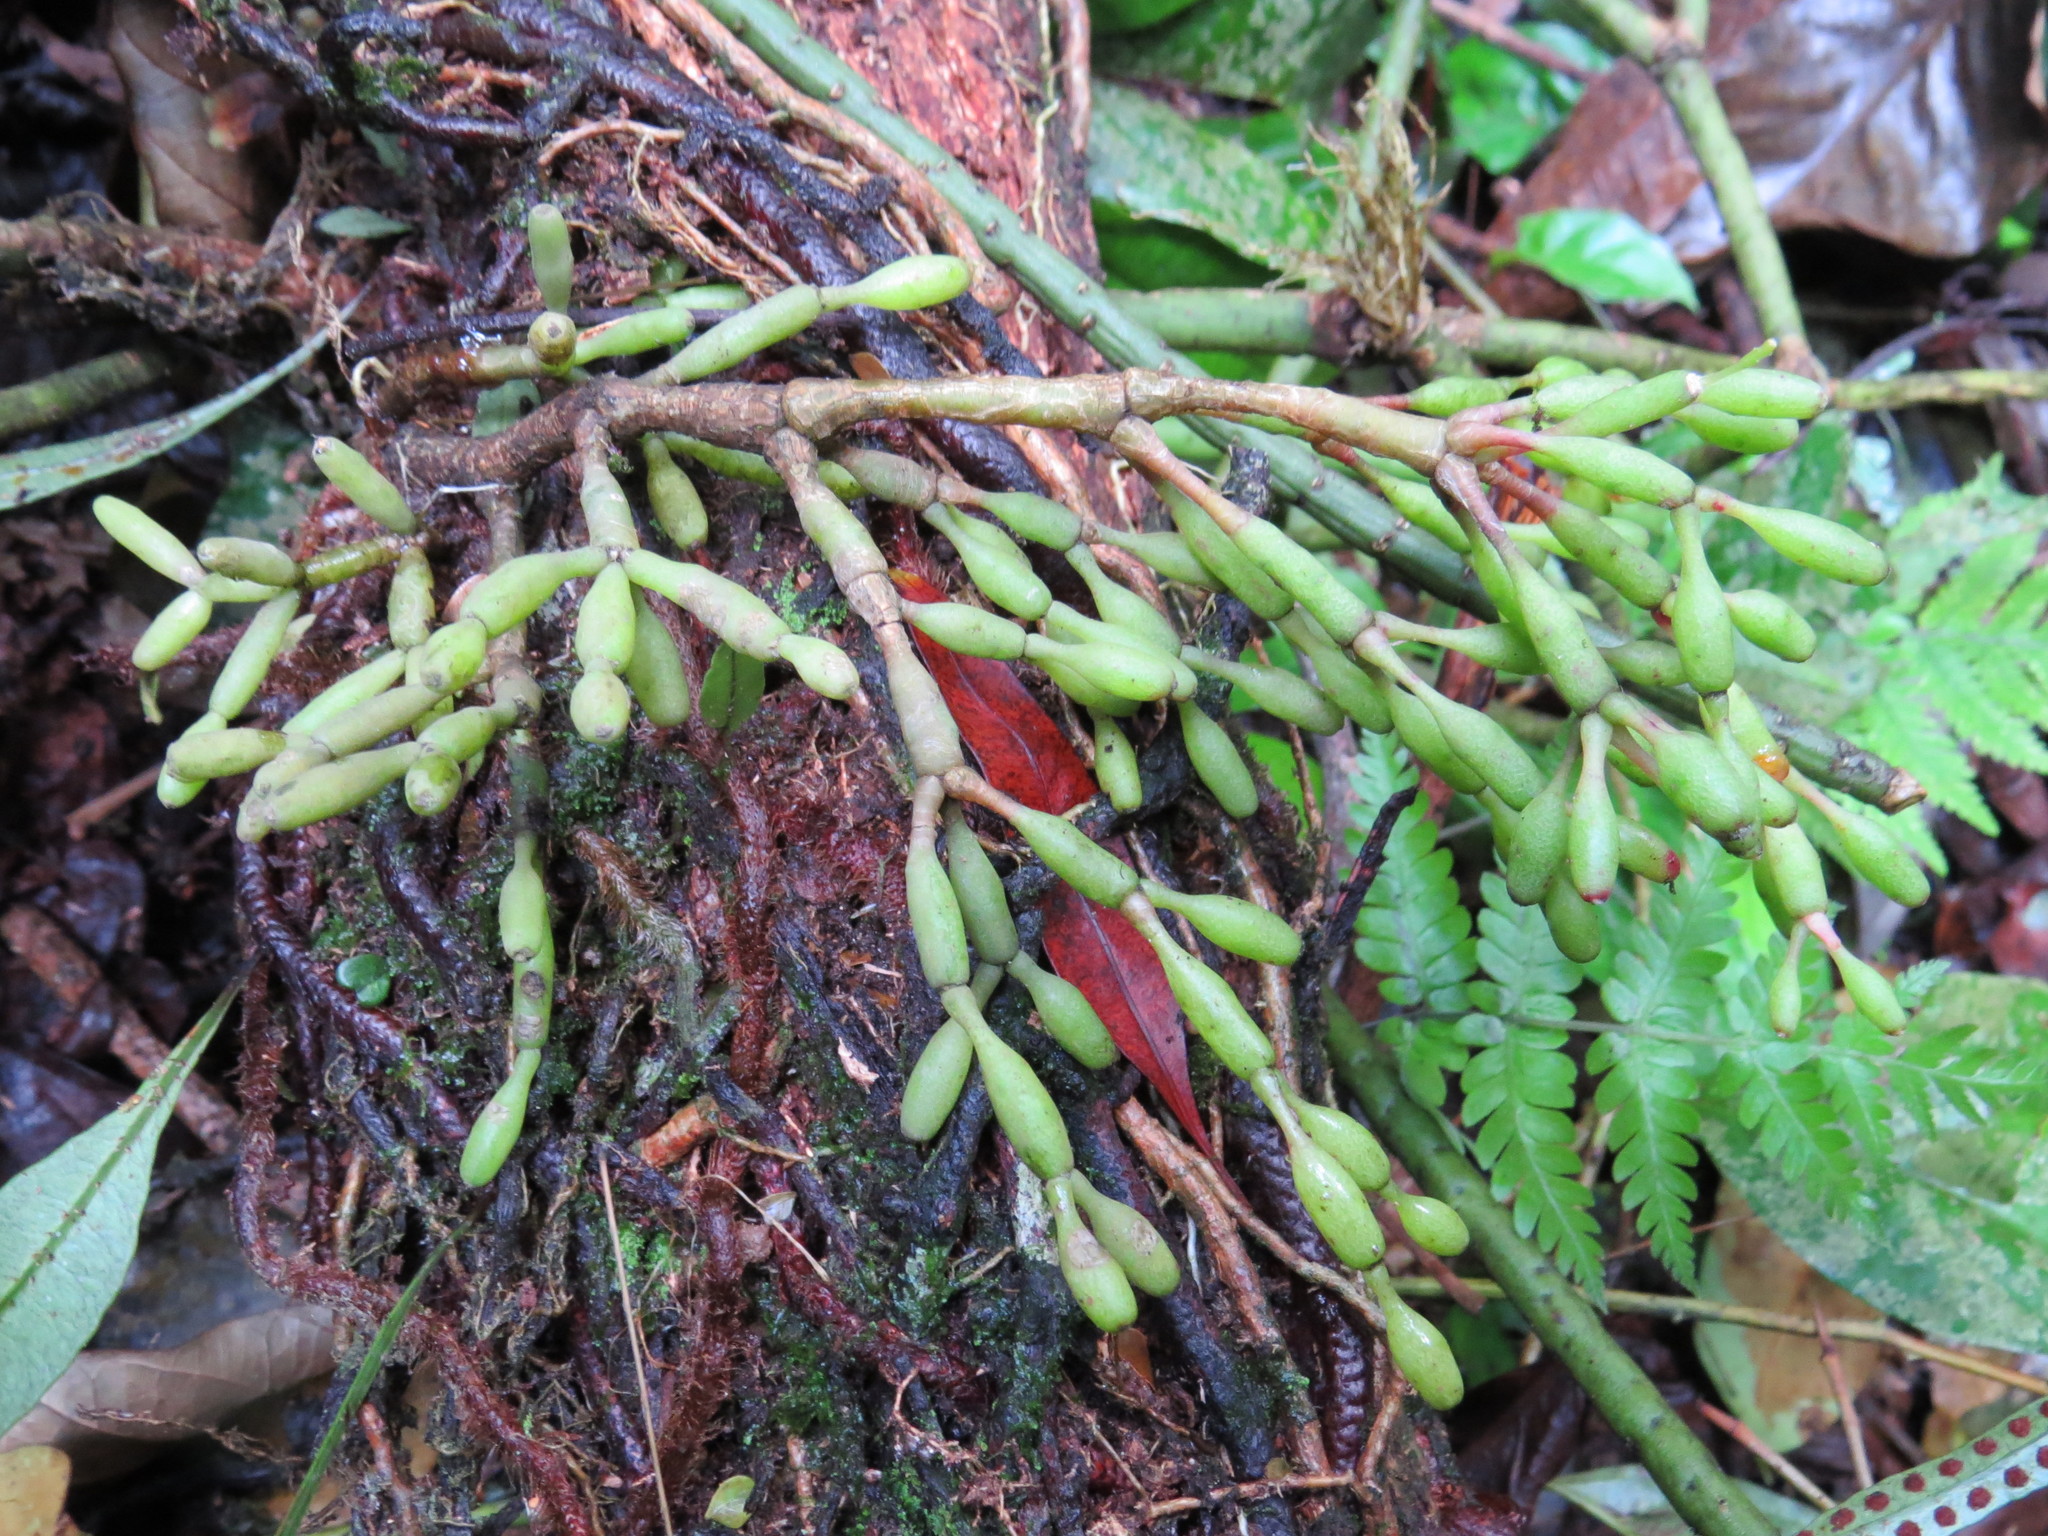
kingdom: Plantae
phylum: Tracheophyta
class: Magnoliopsida
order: Caryophyllales
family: Cactaceae
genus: Hatiora
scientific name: Hatiora salicornoides
